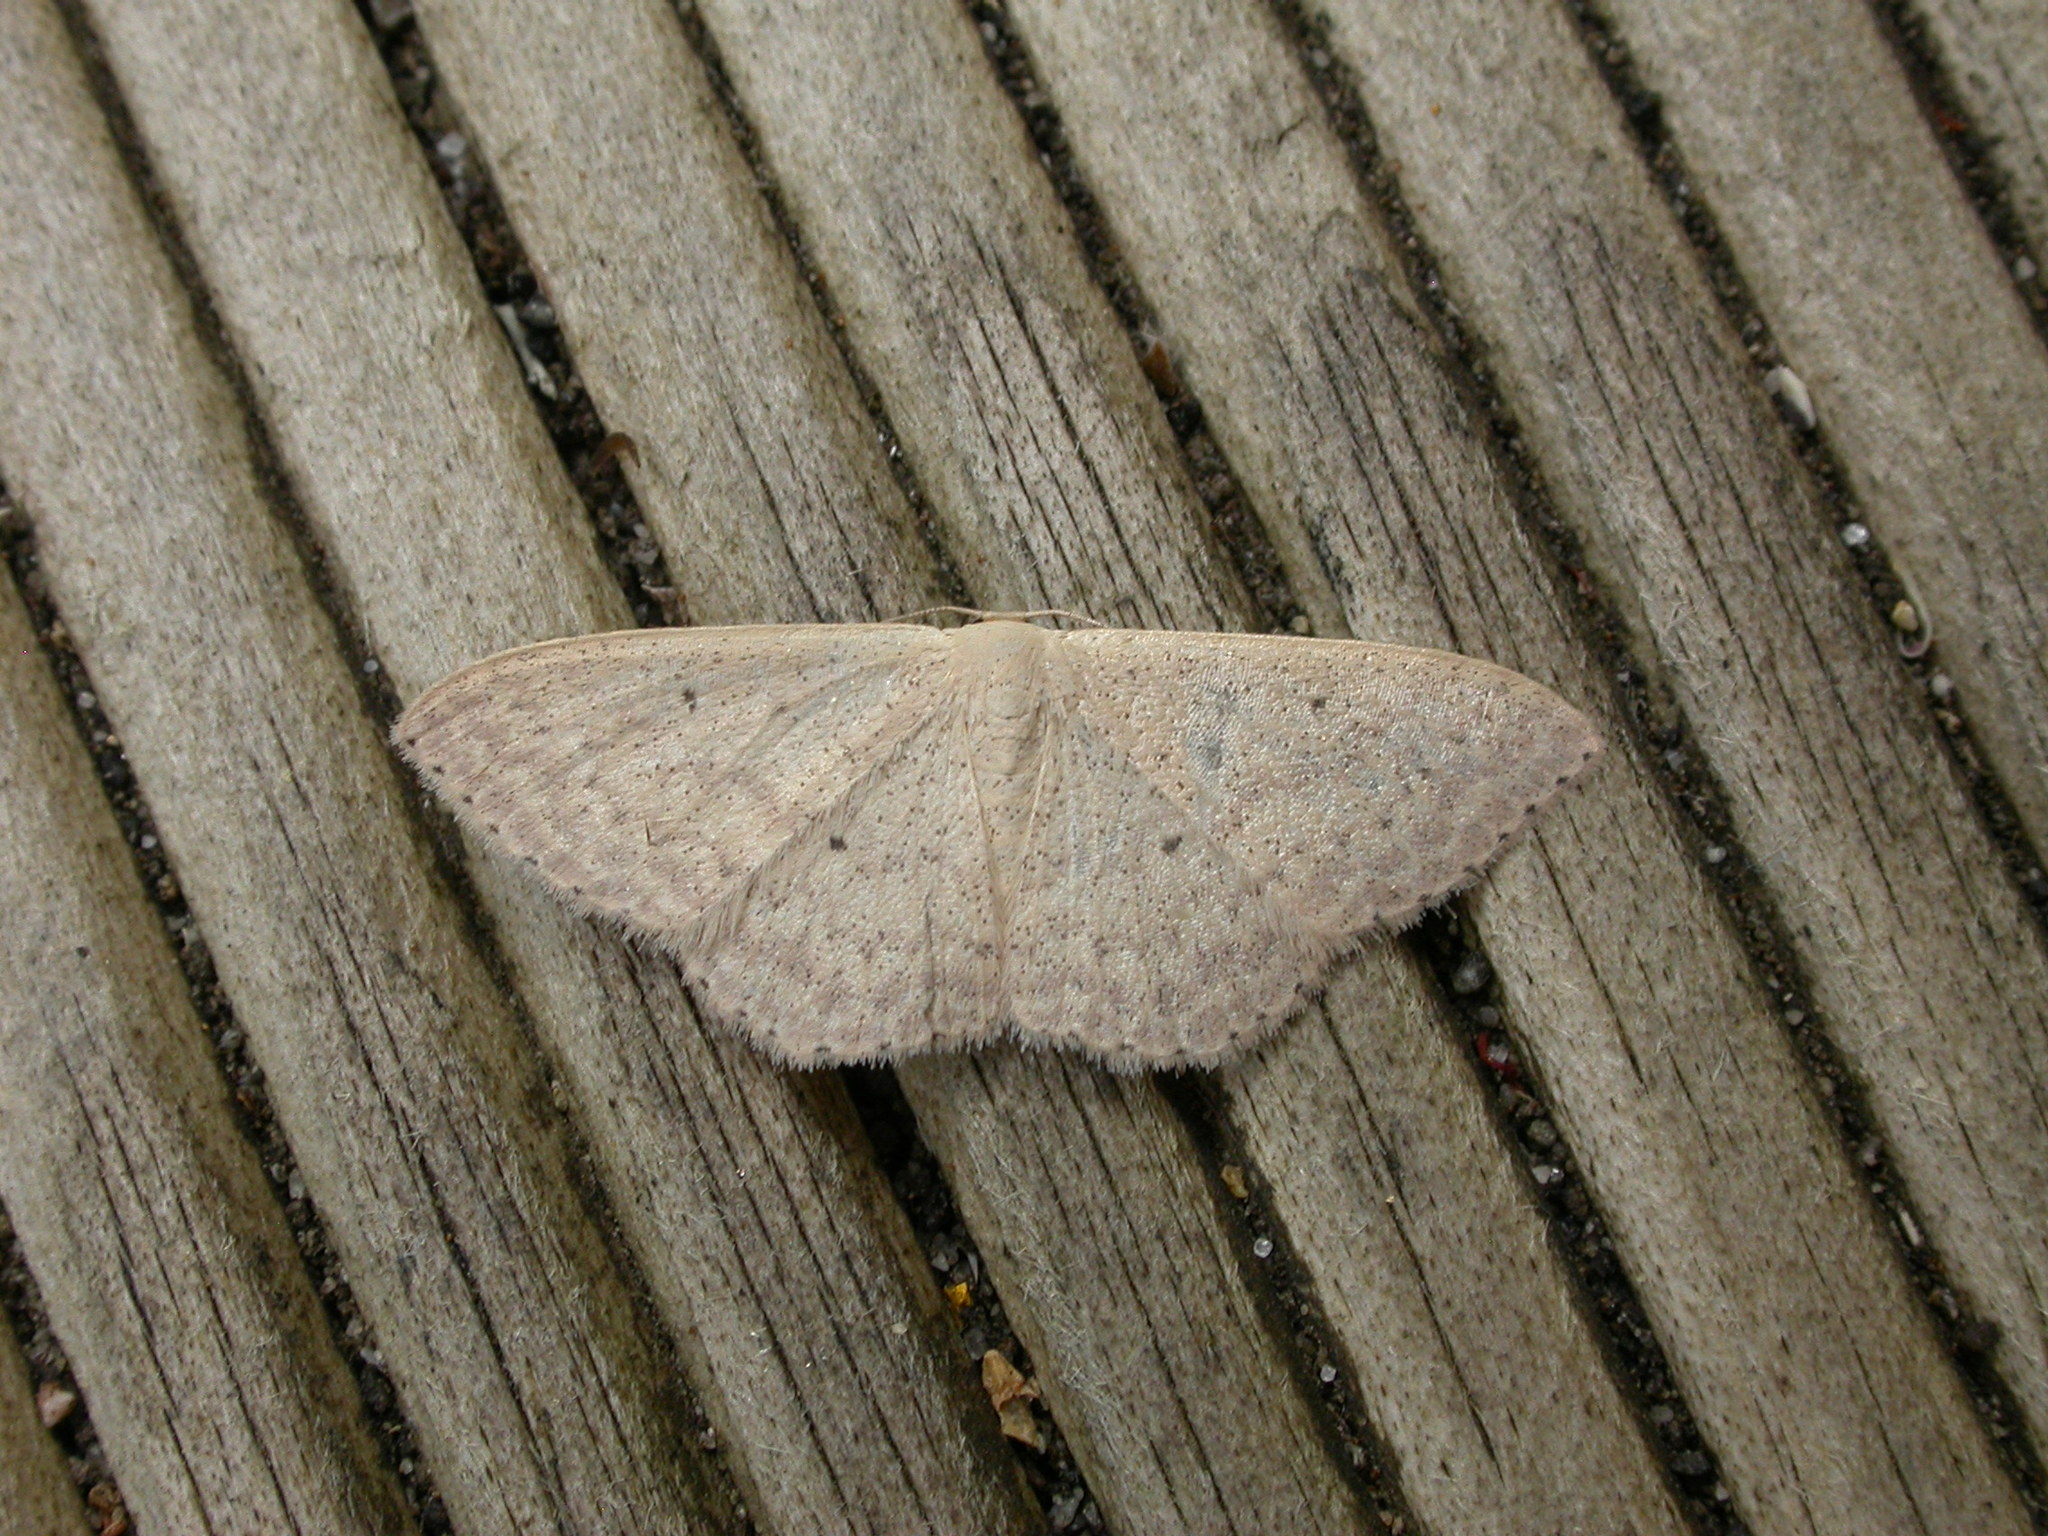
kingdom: Animalia
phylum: Arthropoda
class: Insecta
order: Lepidoptera
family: Geometridae
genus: Scopula
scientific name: Scopula optivata
